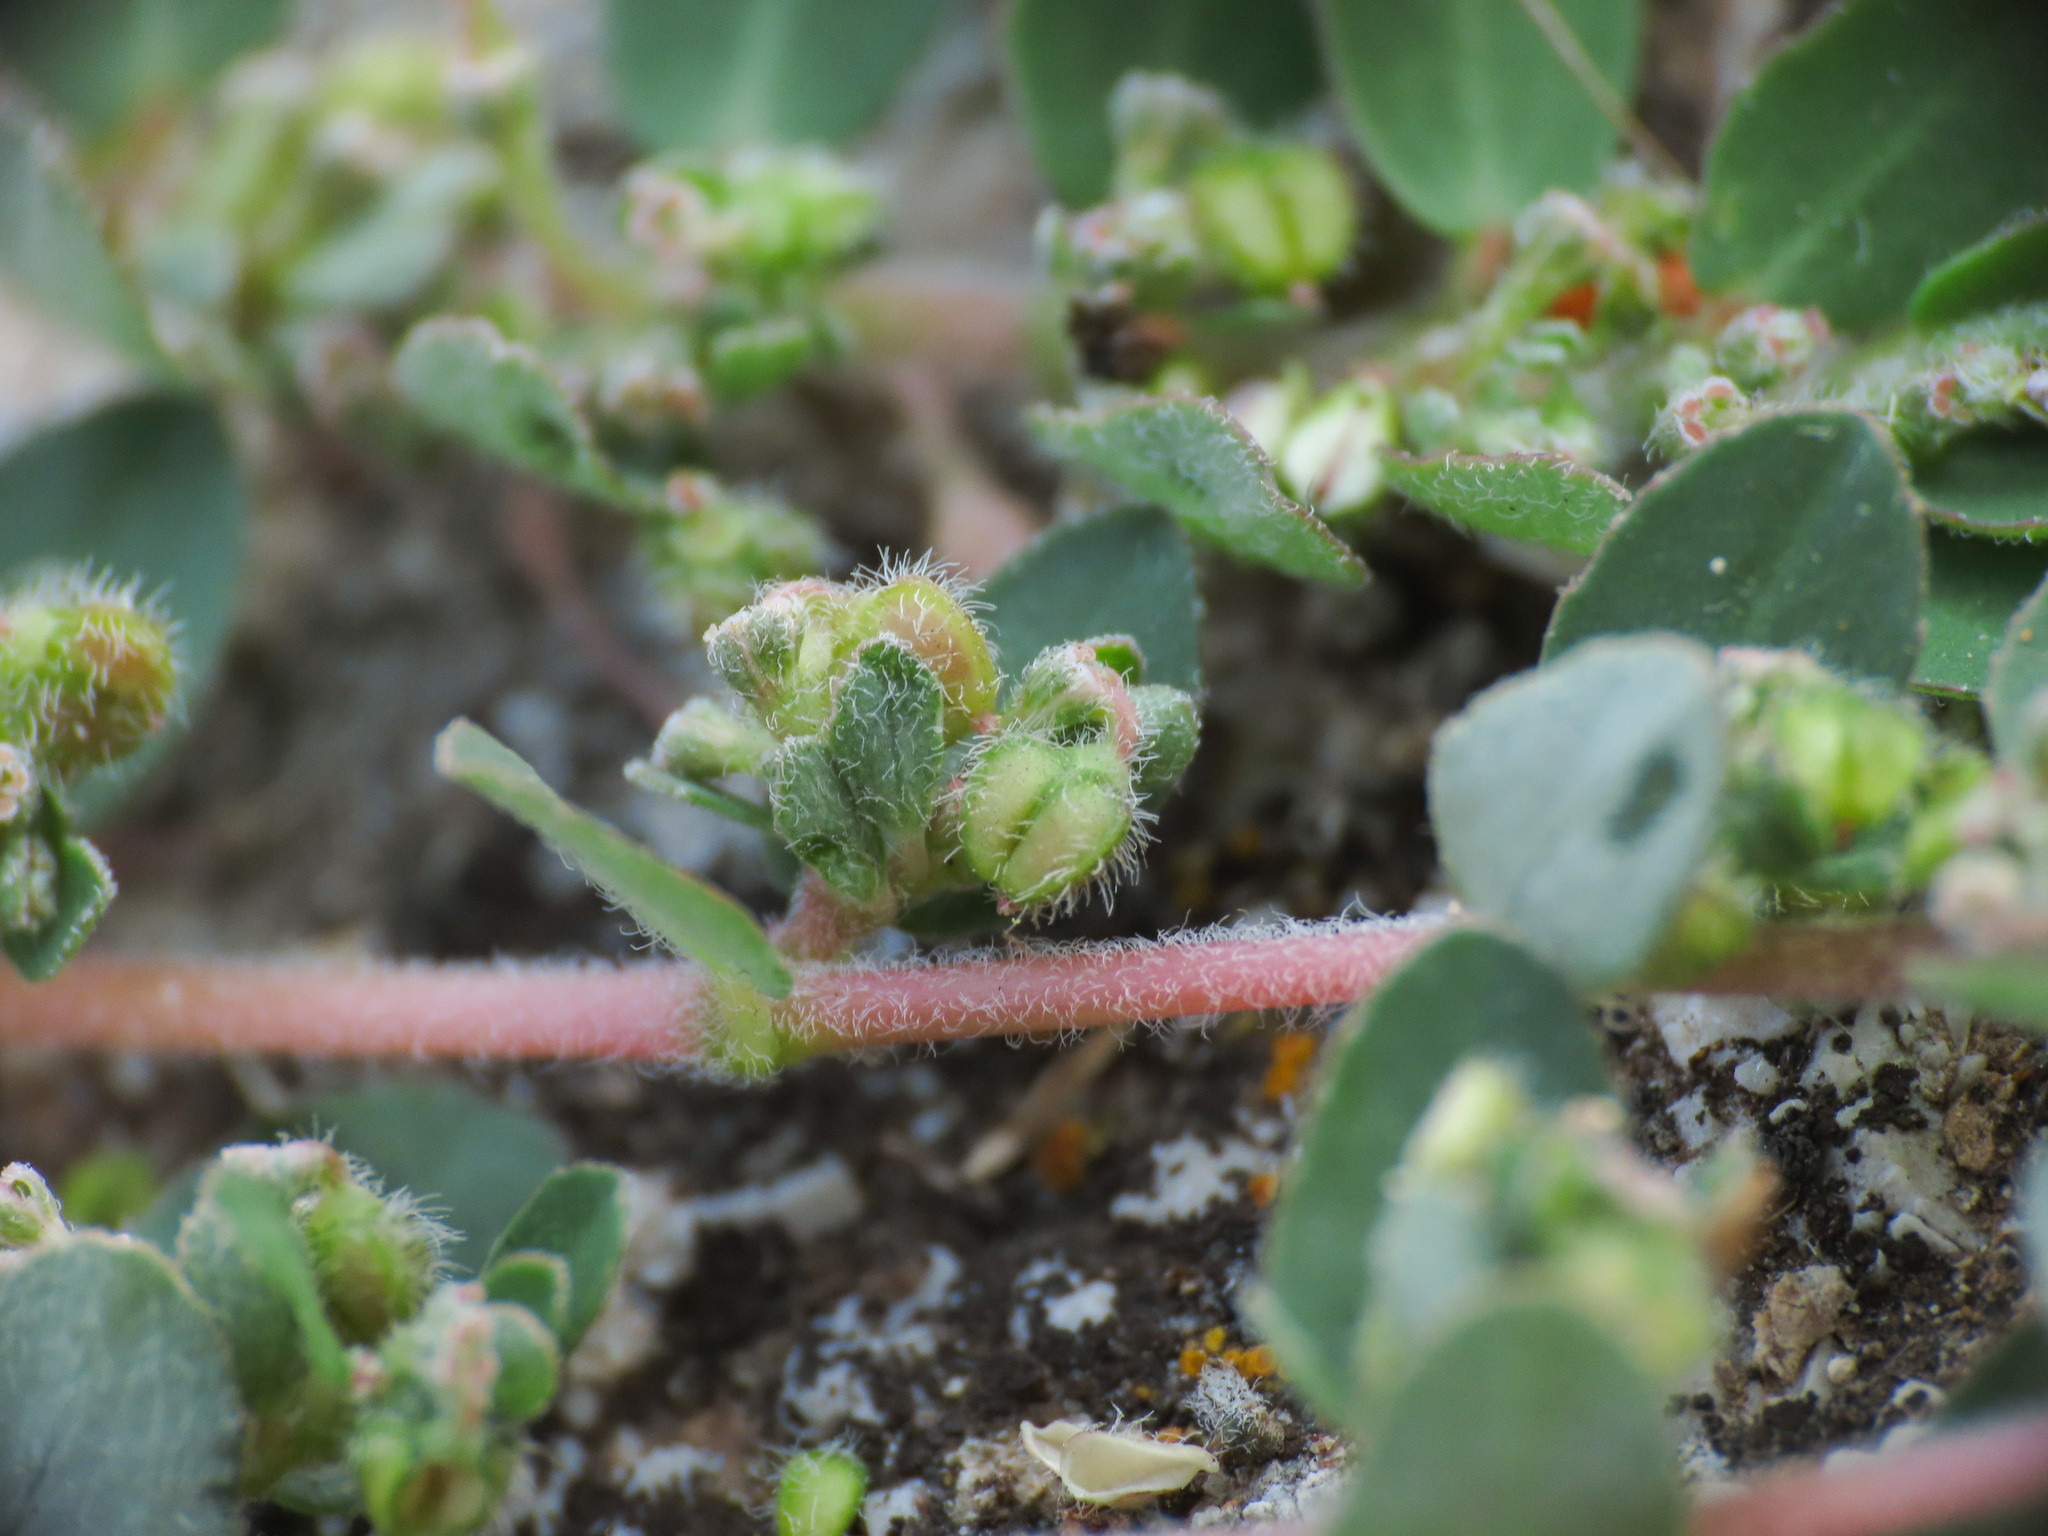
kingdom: Plantae
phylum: Tracheophyta
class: Magnoliopsida
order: Malpighiales
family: Euphorbiaceae
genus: Euphorbia
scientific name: Euphorbia prostrata
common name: Prostrate sandmat
